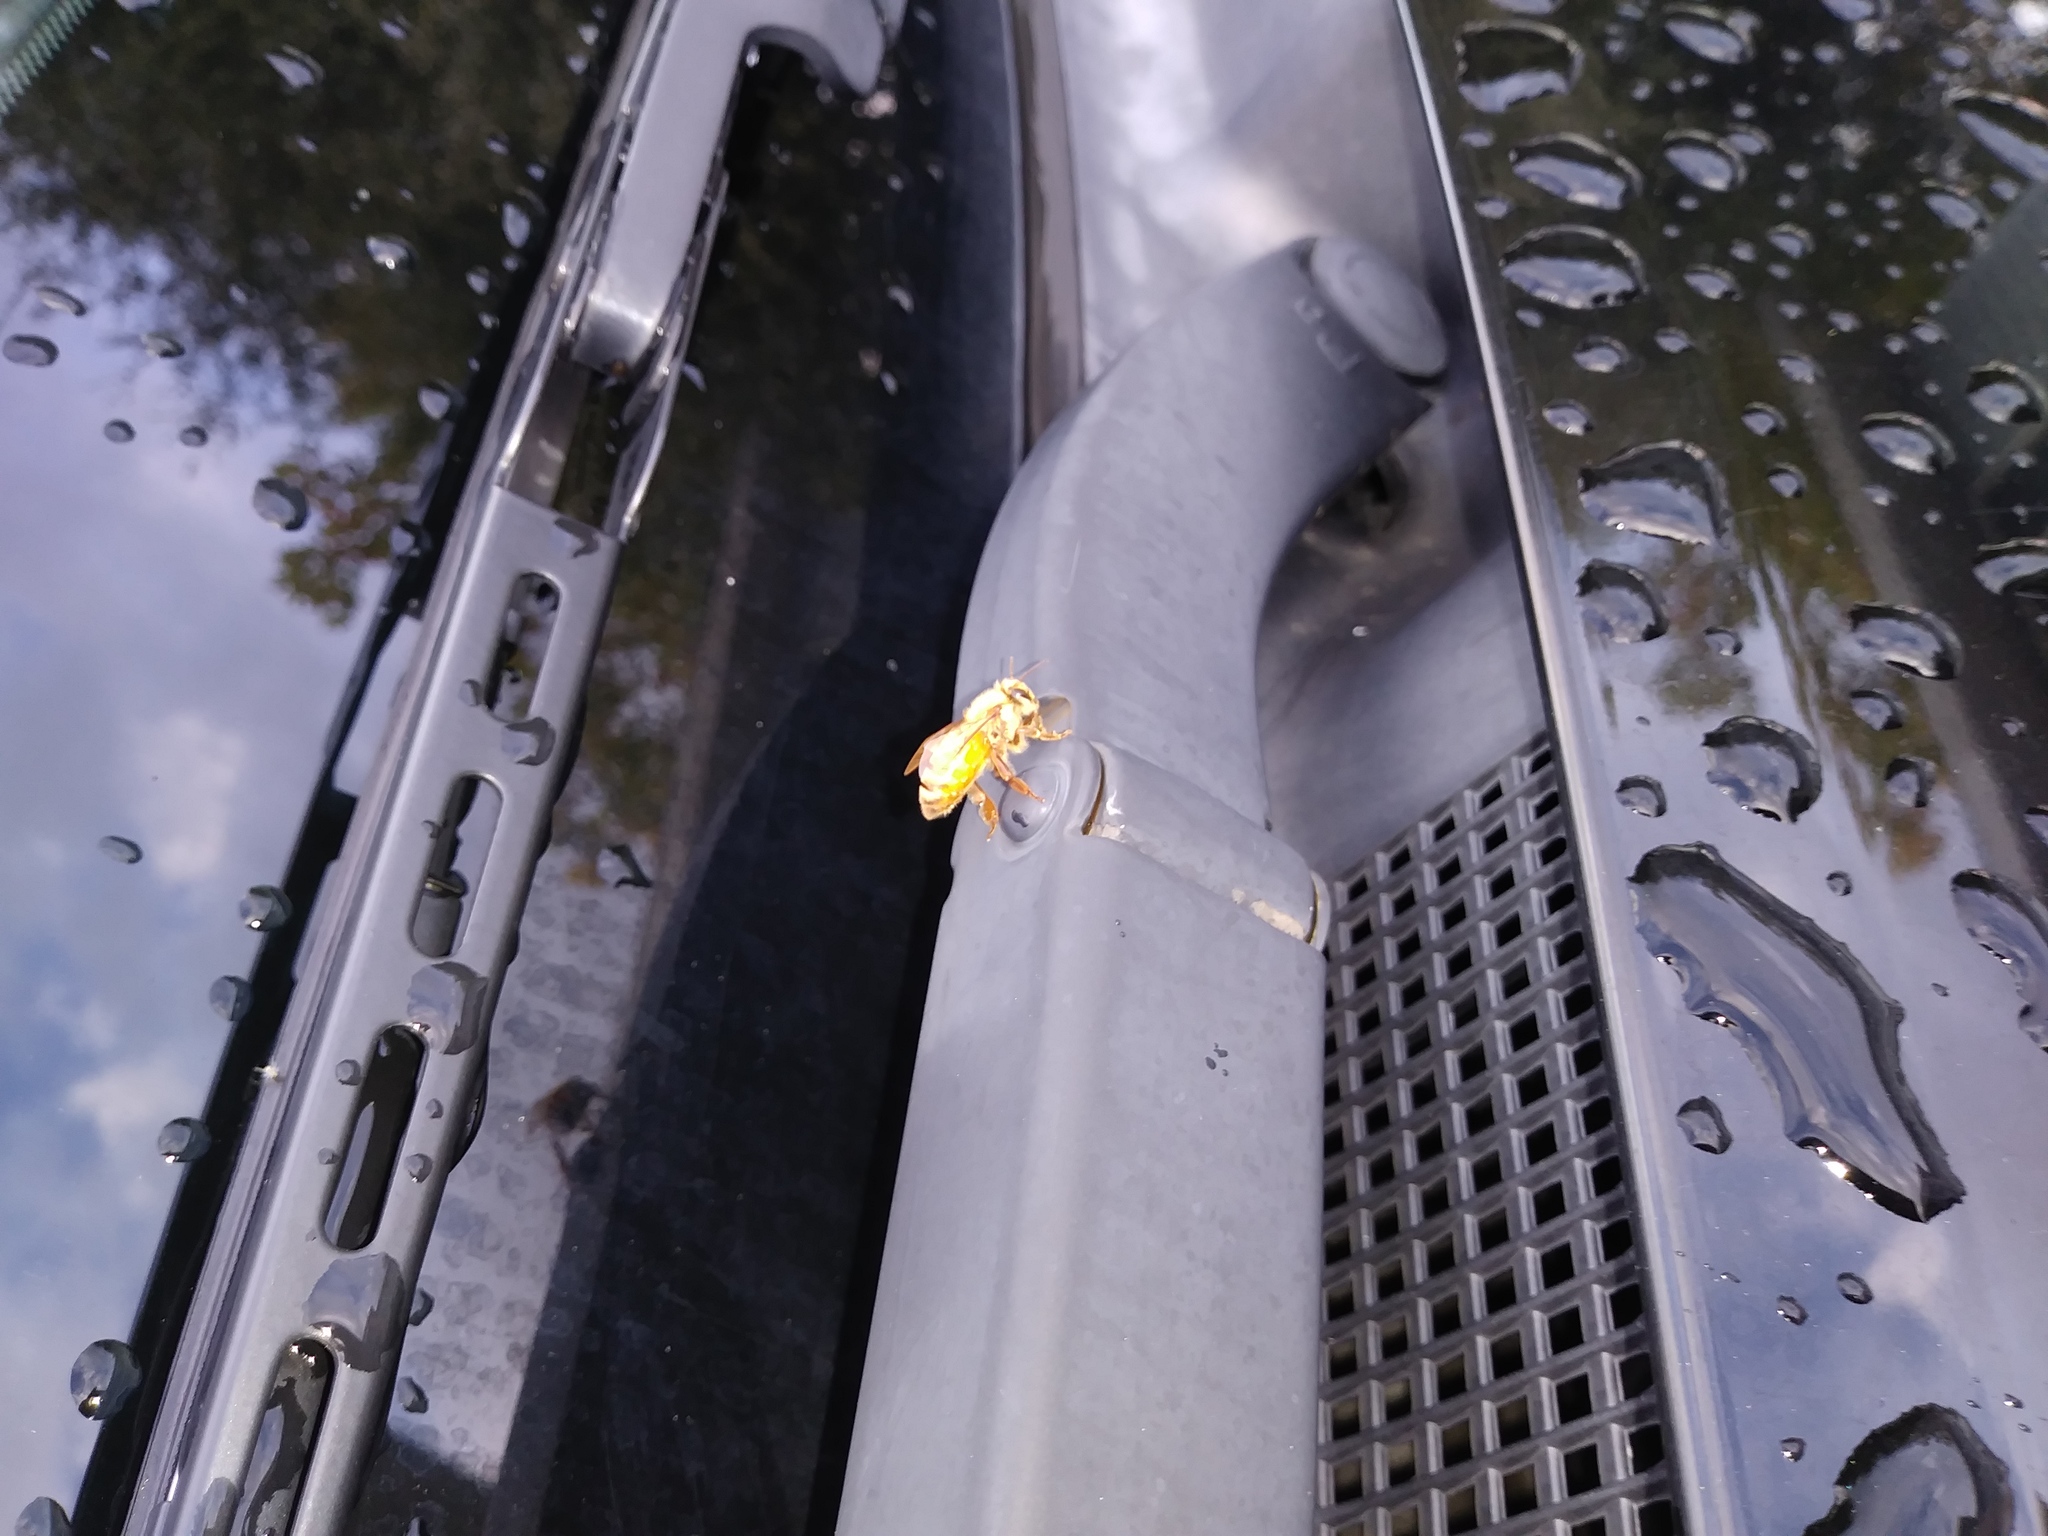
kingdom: Animalia
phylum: Arthropoda
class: Insecta
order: Hymenoptera
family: Apidae
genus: Apis
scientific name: Apis mellifera
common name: Honey bee
